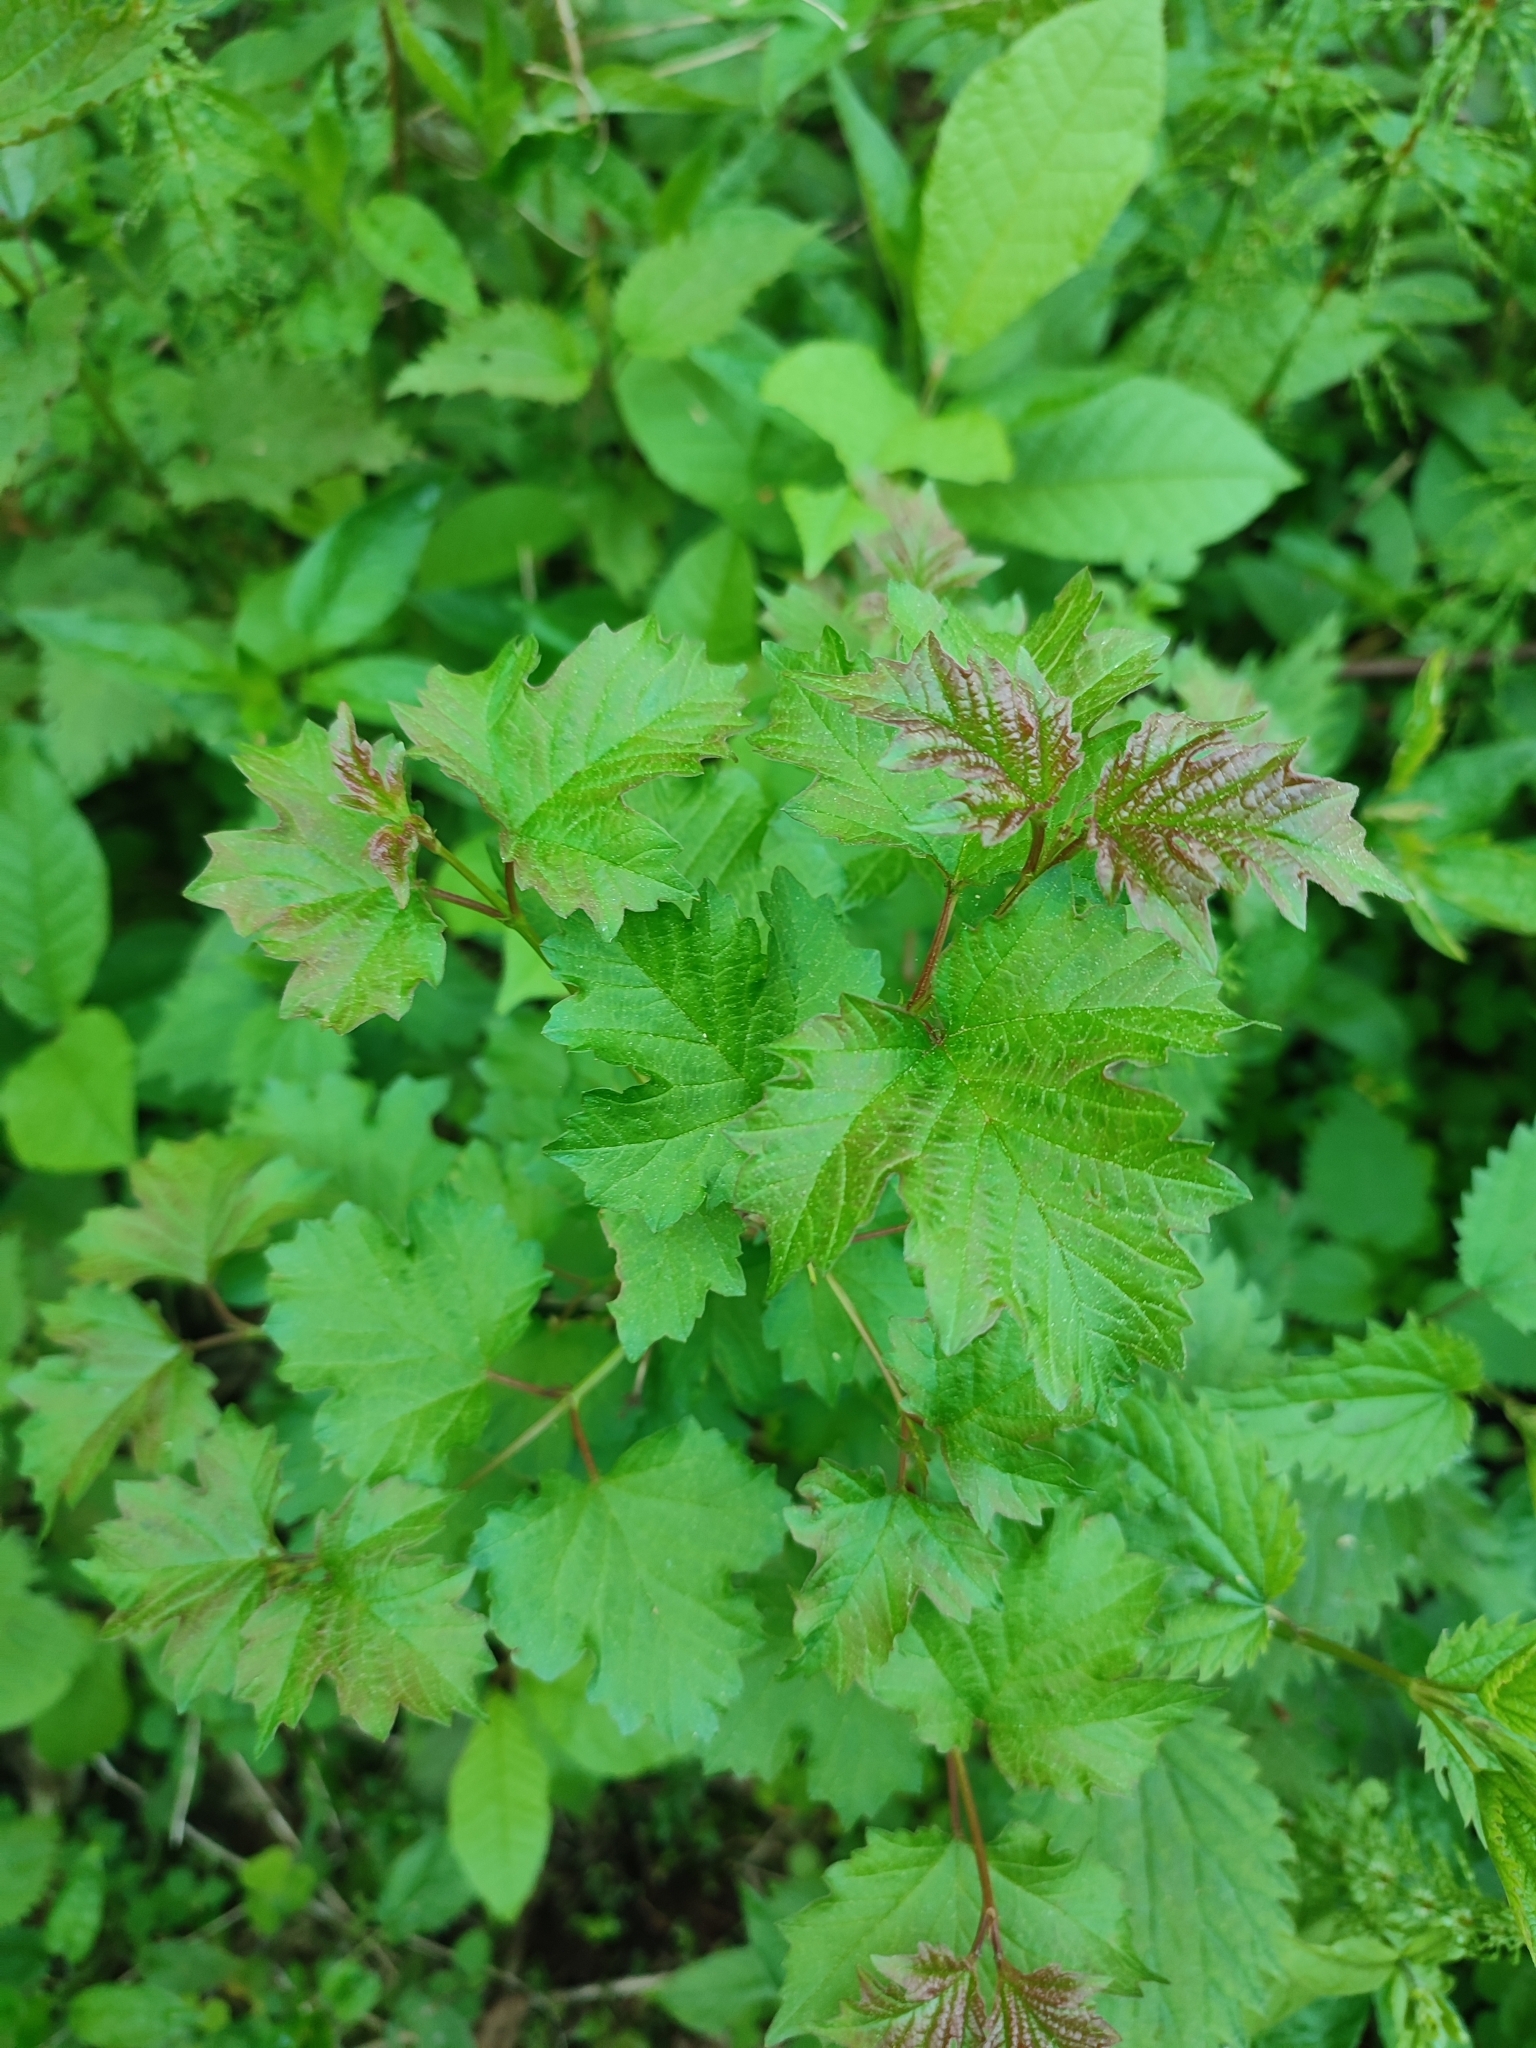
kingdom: Plantae
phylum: Tracheophyta
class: Magnoliopsida
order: Dipsacales
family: Viburnaceae
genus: Viburnum
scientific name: Viburnum opulus
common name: Guelder-rose
